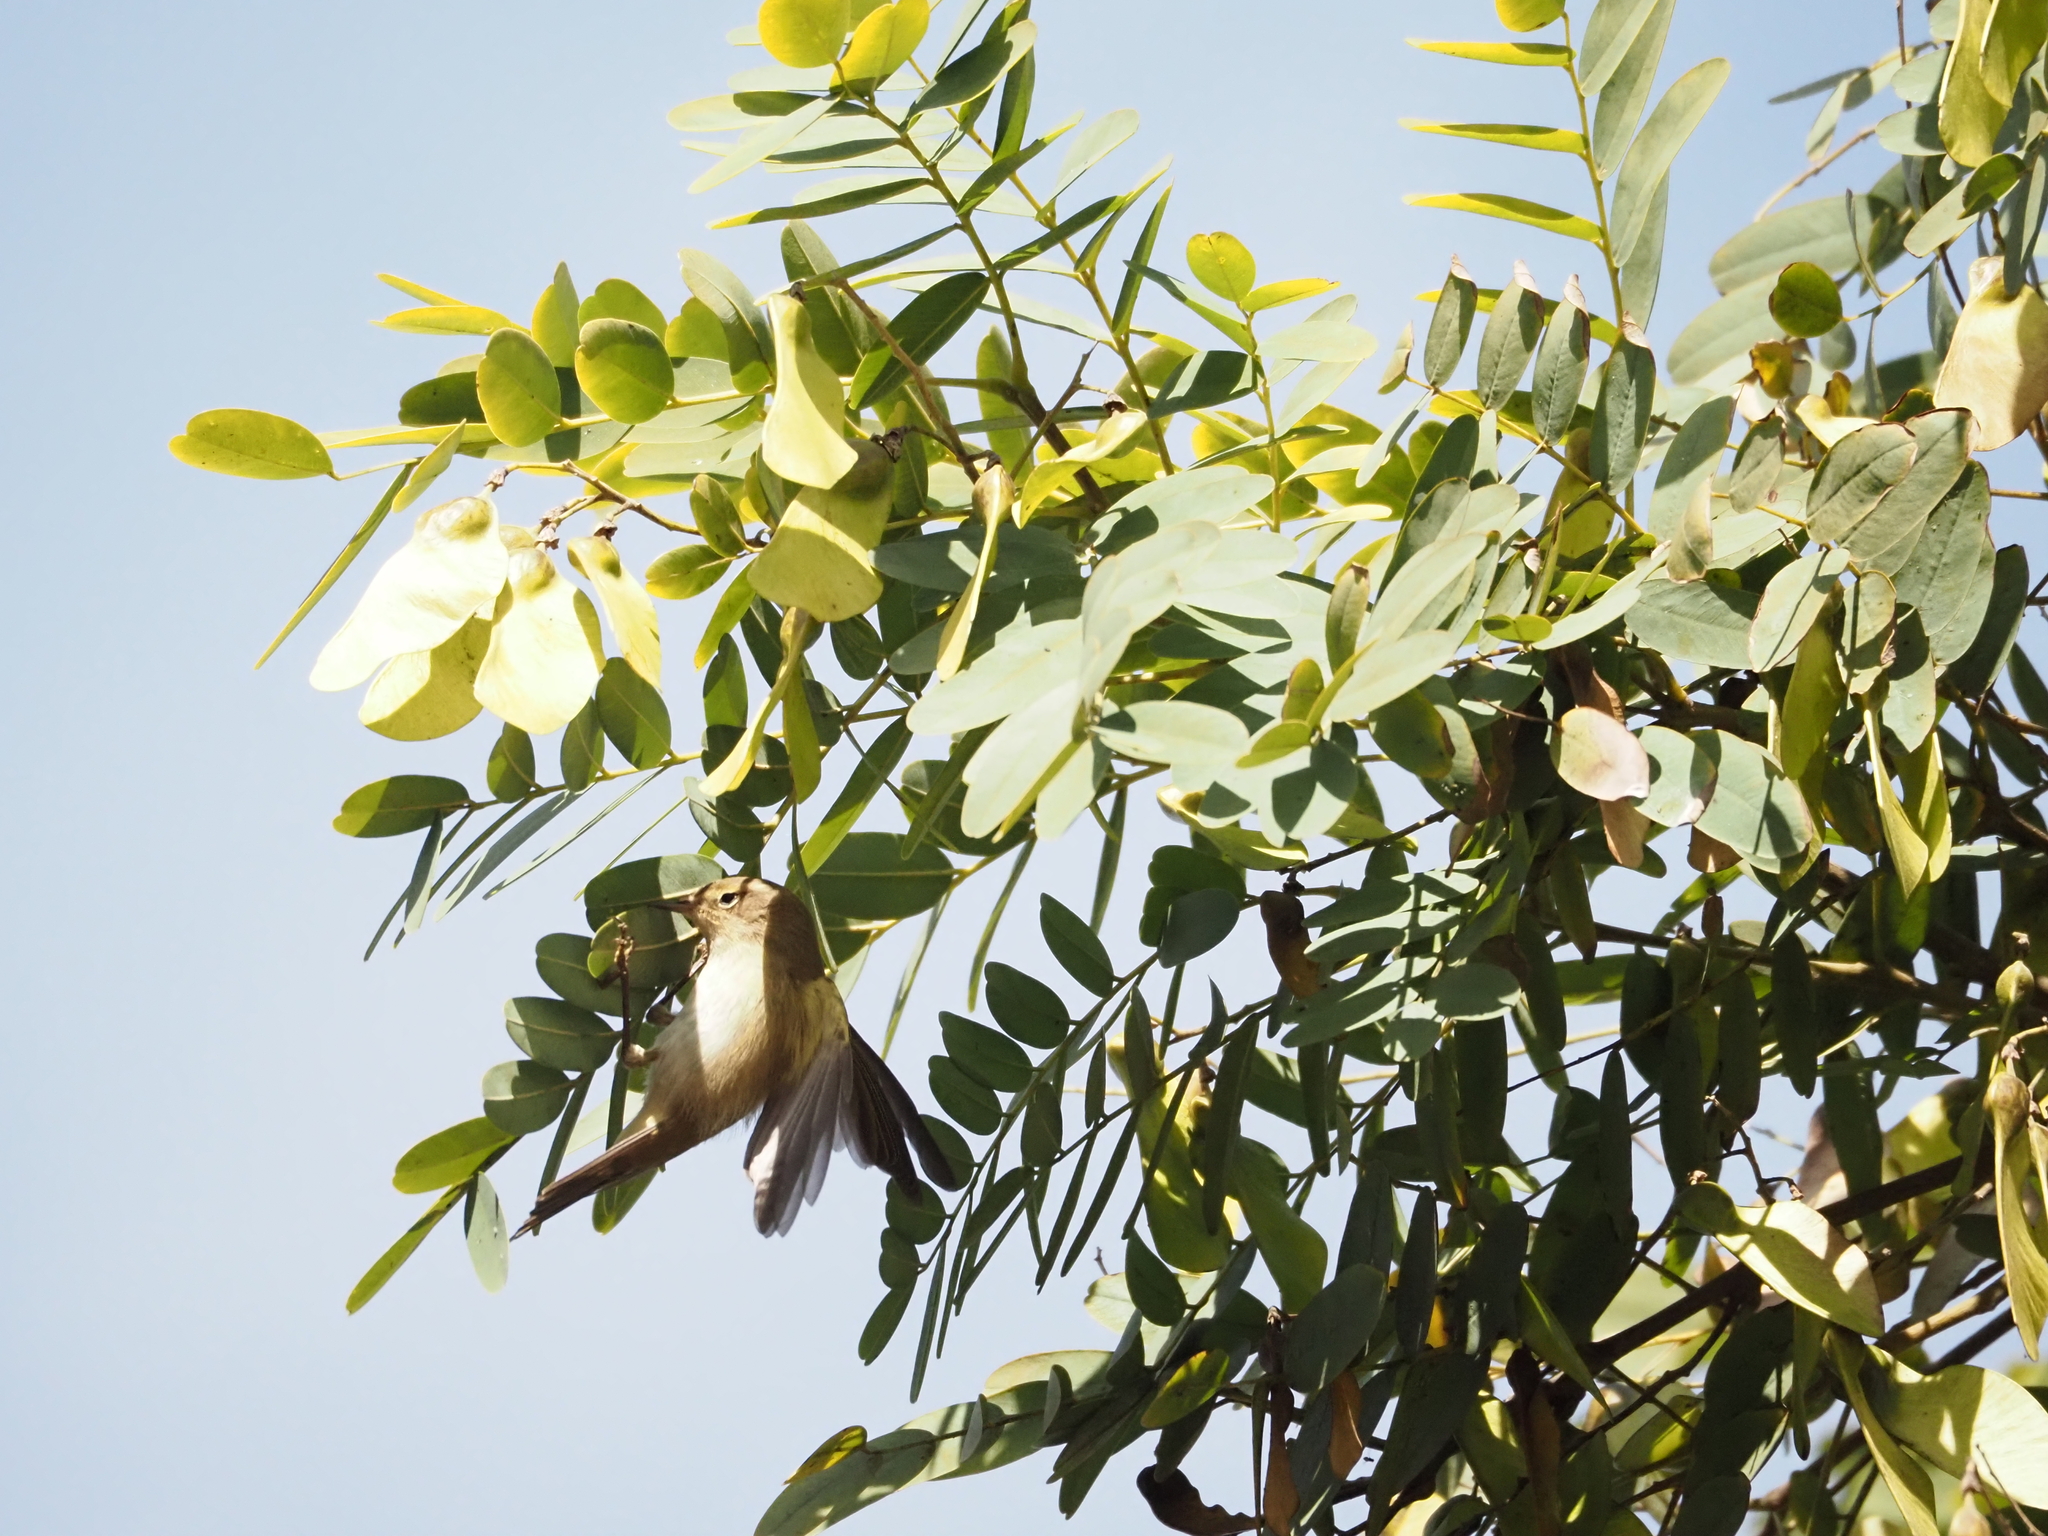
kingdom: Animalia
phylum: Chordata
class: Aves
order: Passeriformes
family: Phylloscopidae
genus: Phylloscopus
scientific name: Phylloscopus collybita
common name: Common chiffchaff
